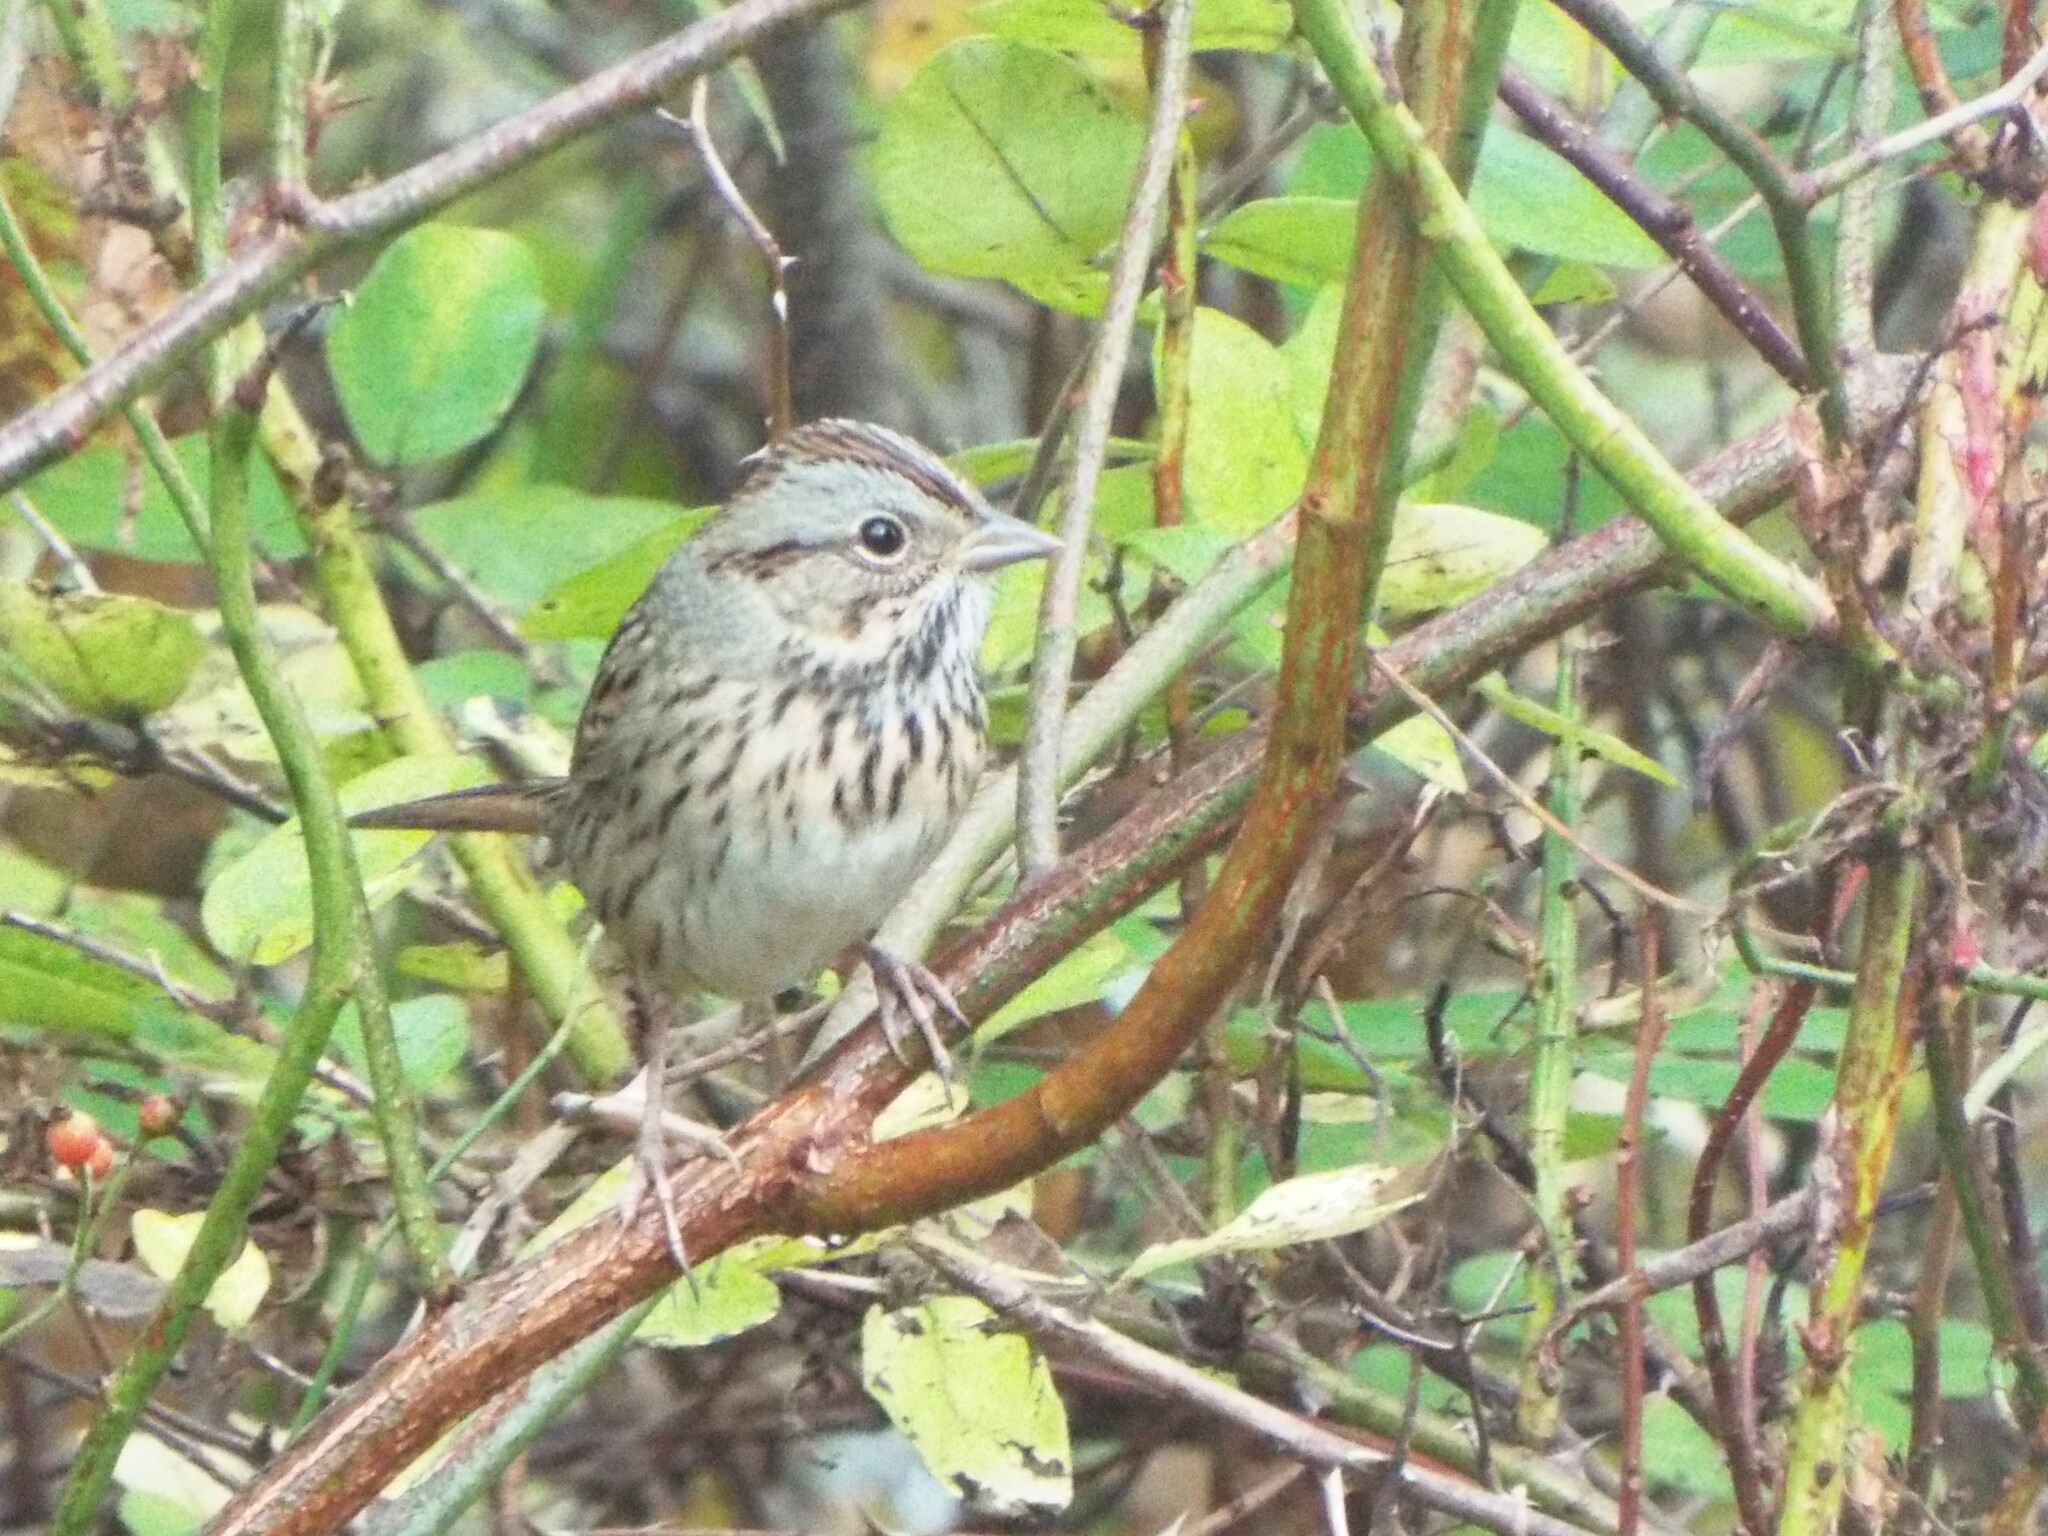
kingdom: Animalia
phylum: Chordata
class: Aves
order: Passeriformes
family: Passerellidae
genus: Melospiza
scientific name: Melospiza lincolnii
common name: Lincoln's sparrow
